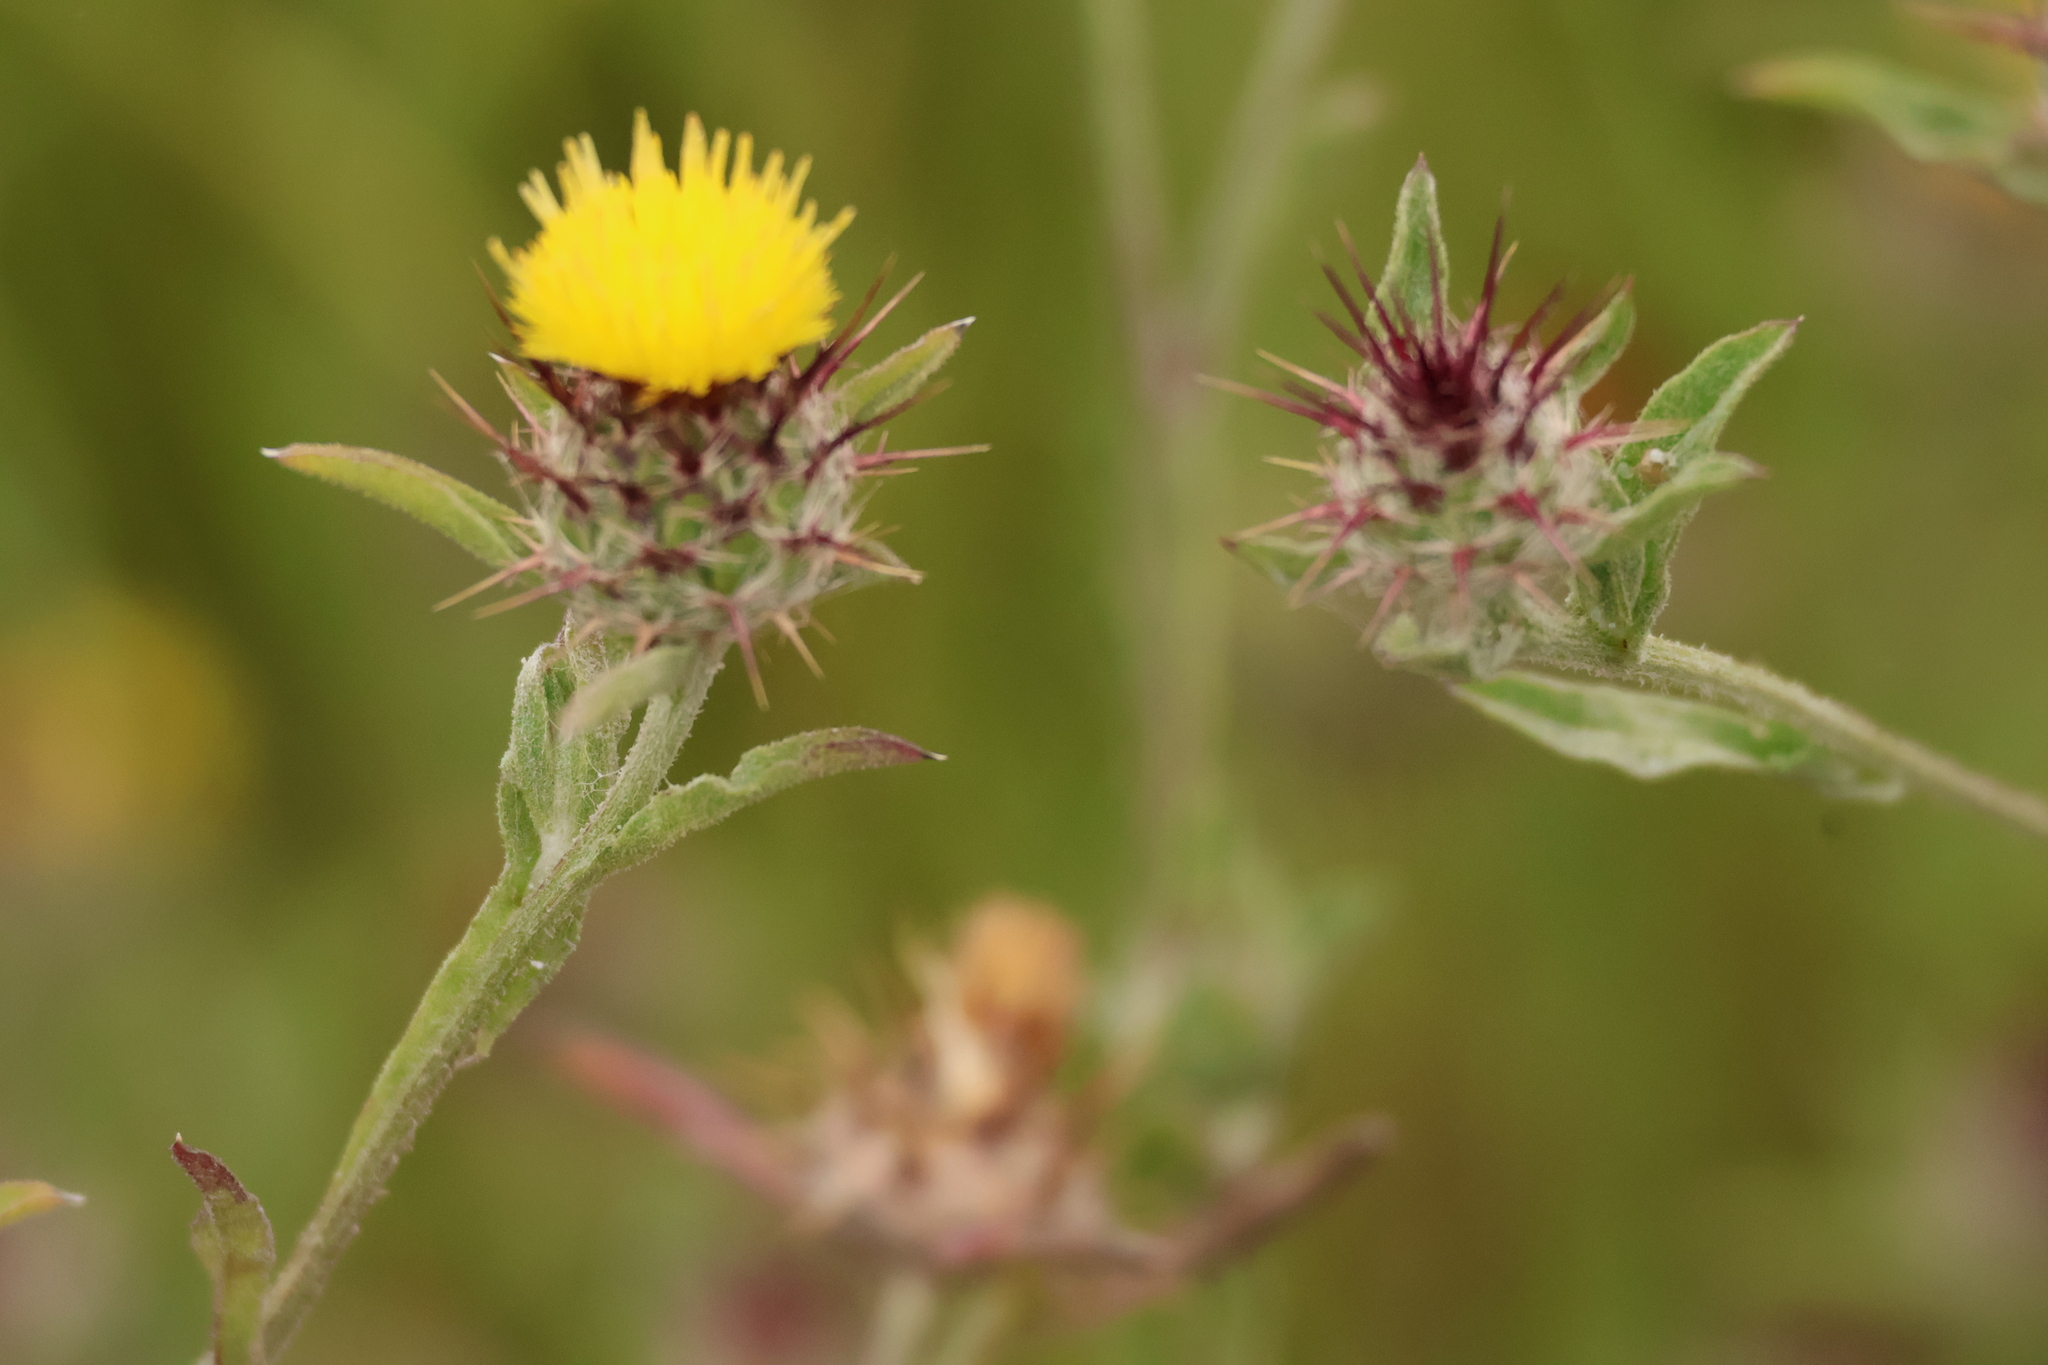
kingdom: Plantae
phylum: Tracheophyta
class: Magnoliopsida
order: Asterales
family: Asteraceae
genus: Centaurea
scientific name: Centaurea melitensis
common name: Maltese star-thistle
